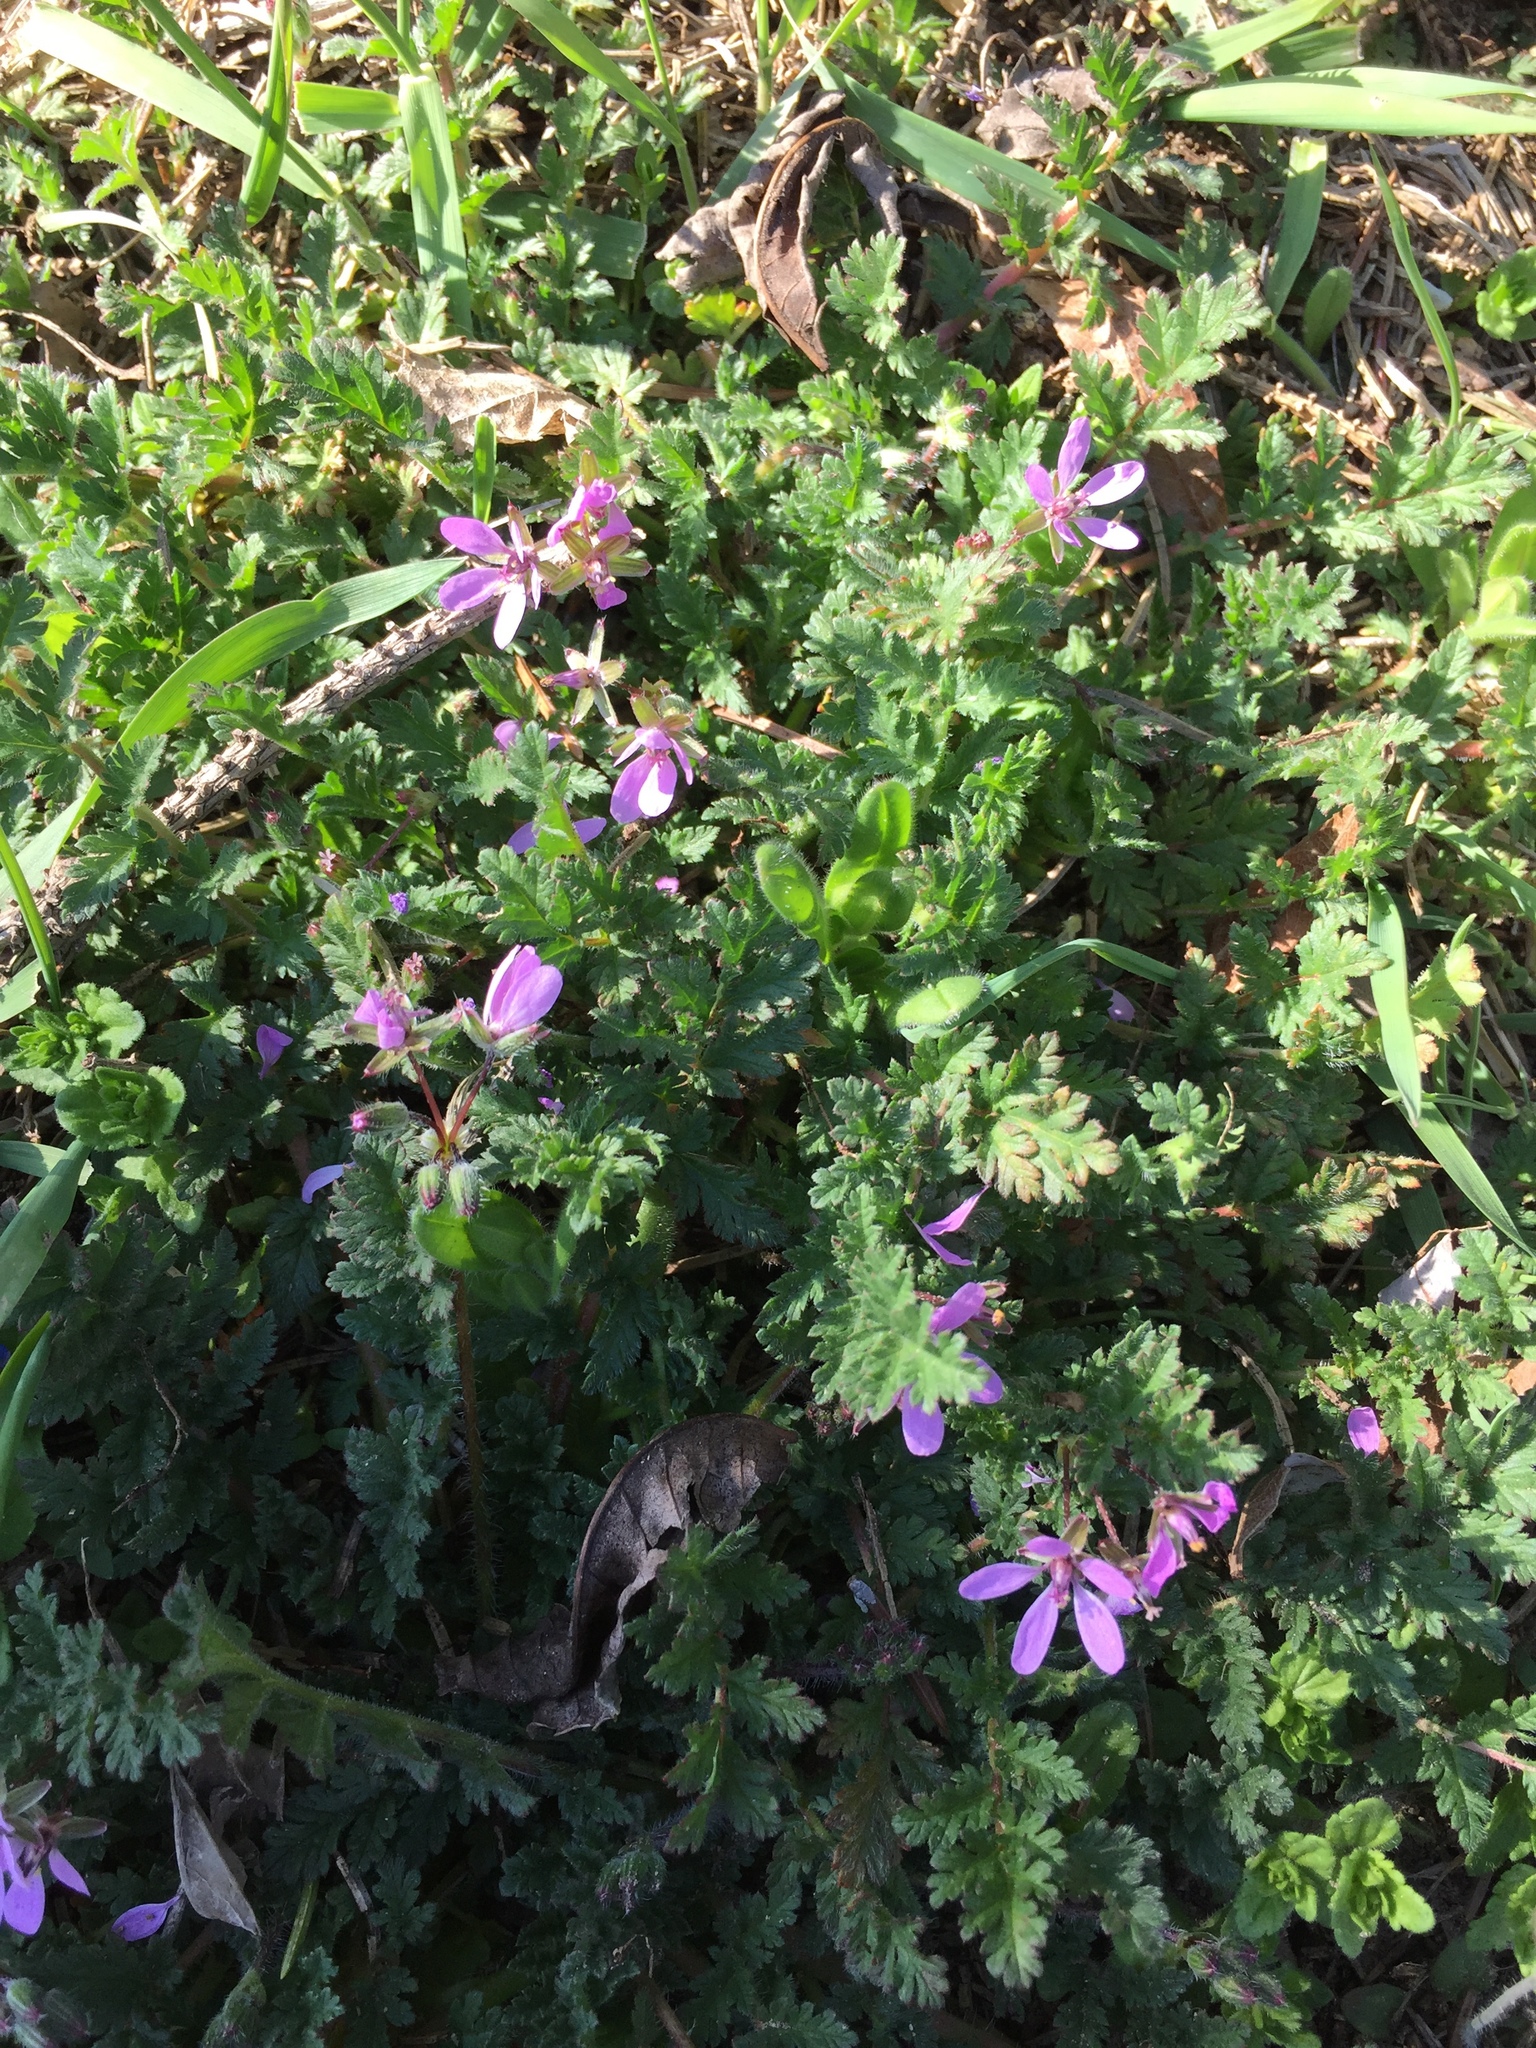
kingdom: Plantae
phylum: Tracheophyta
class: Magnoliopsida
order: Geraniales
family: Geraniaceae
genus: Erodium
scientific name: Erodium cicutarium
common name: Common stork's-bill
